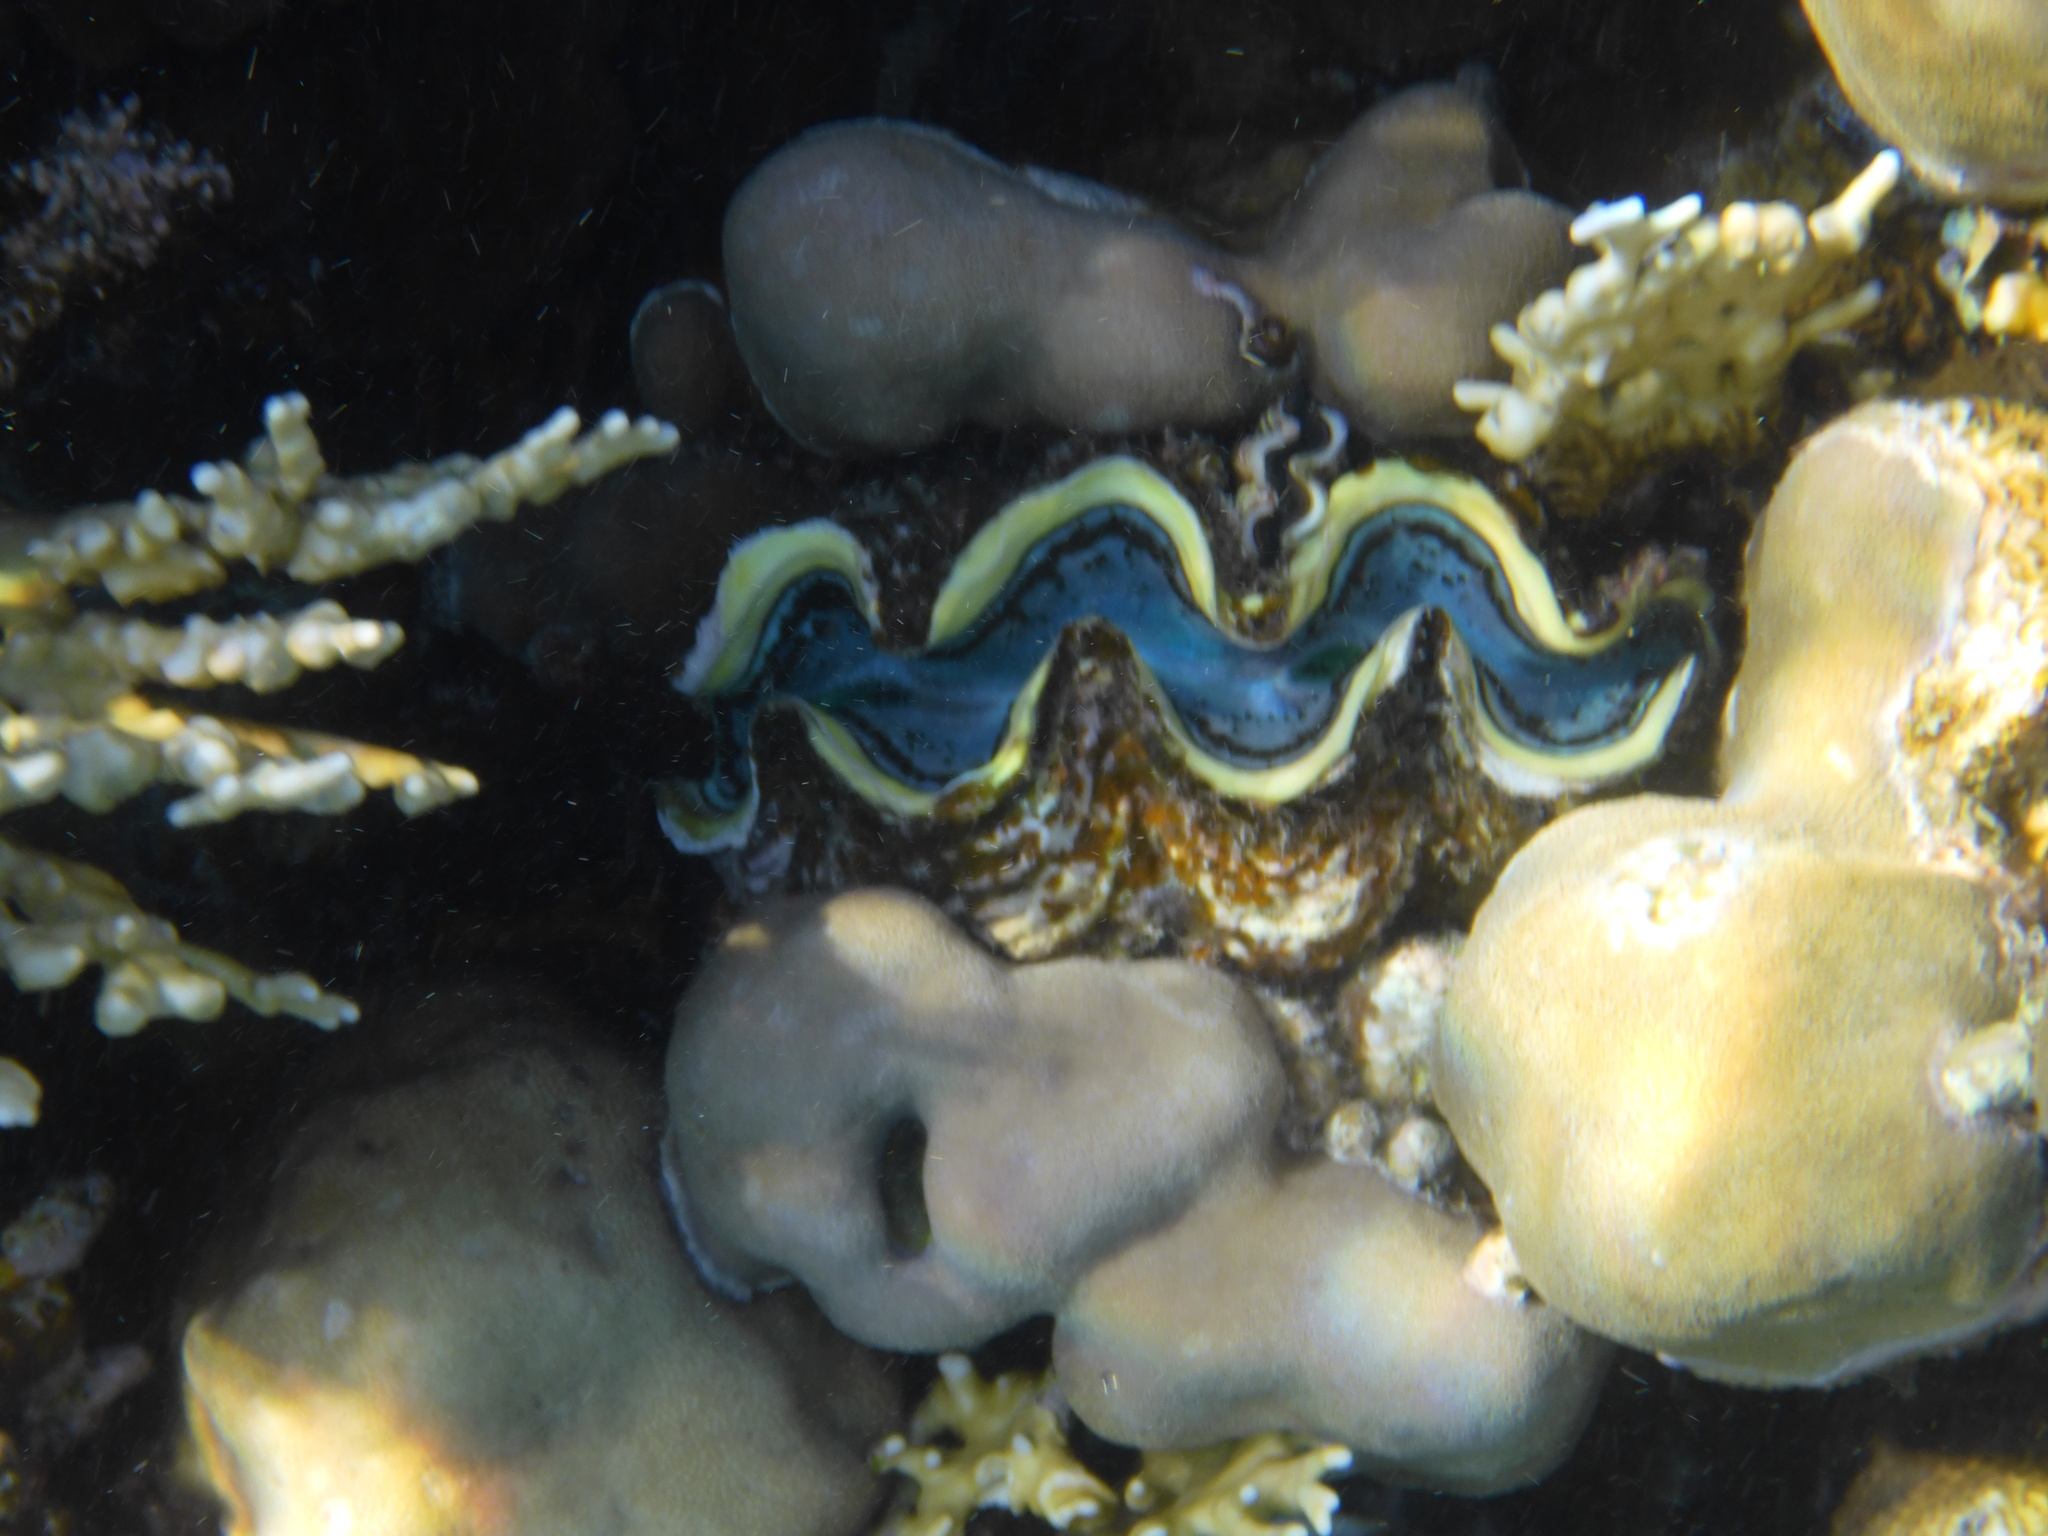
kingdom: Animalia
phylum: Mollusca
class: Bivalvia
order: Cardiida
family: Cardiidae
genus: Tridacna
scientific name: Tridacna maxima
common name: Small giant clam
